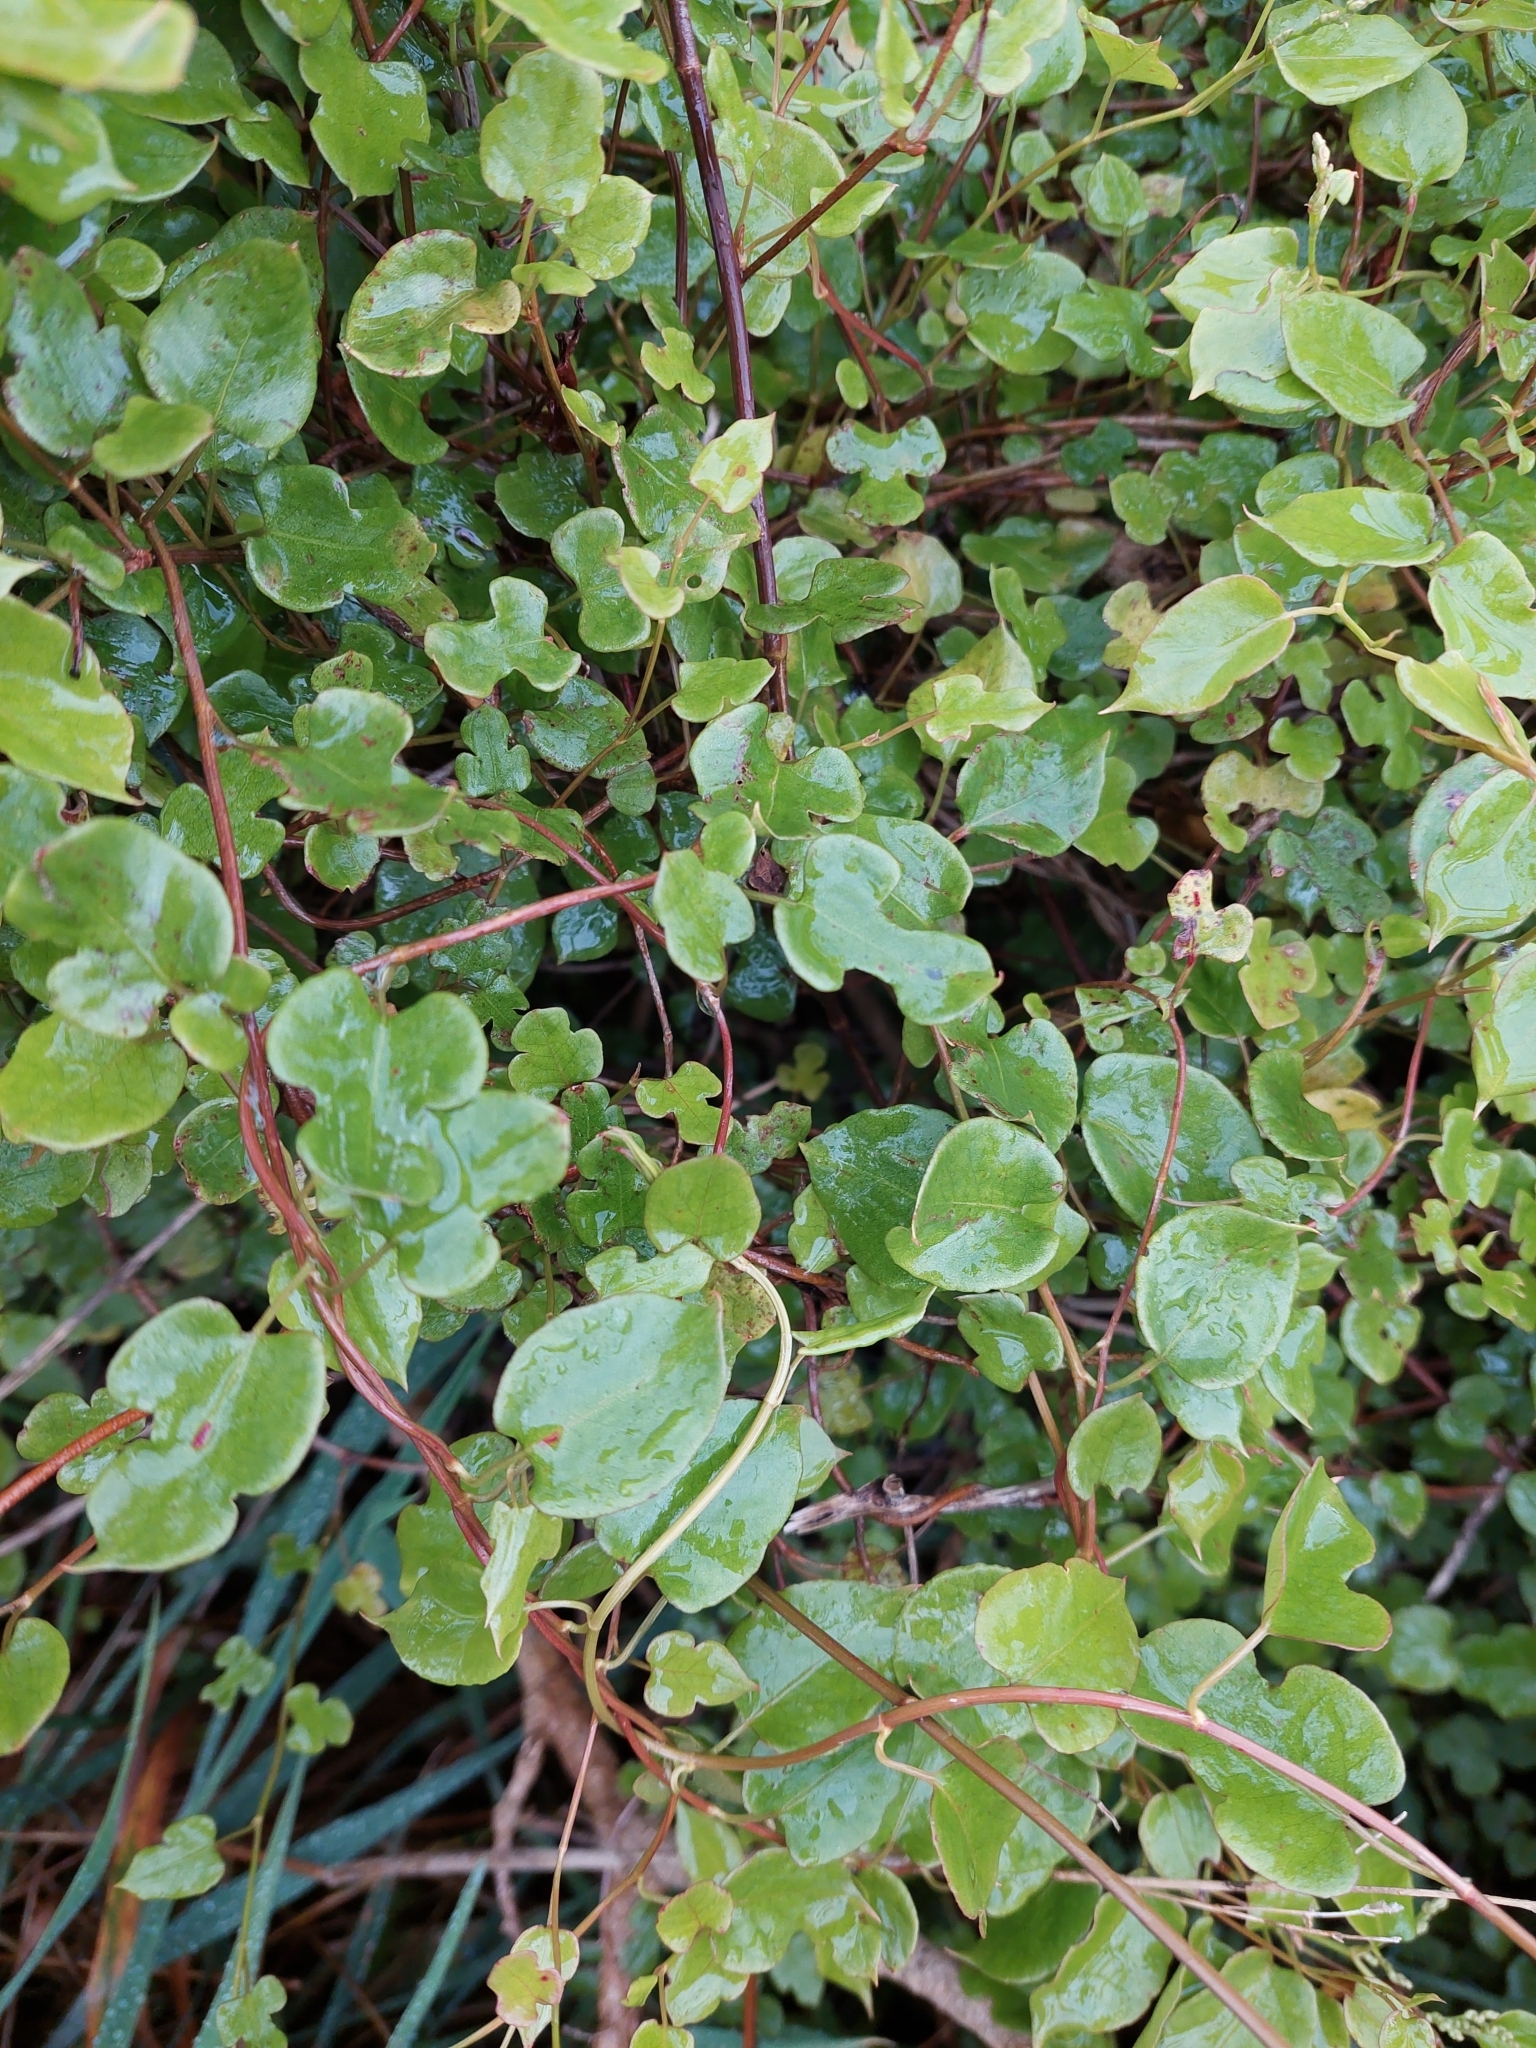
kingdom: Plantae
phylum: Tracheophyta
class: Magnoliopsida
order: Caryophyllales
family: Polygonaceae
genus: Muehlenbeckia
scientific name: Muehlenbeckia australis
